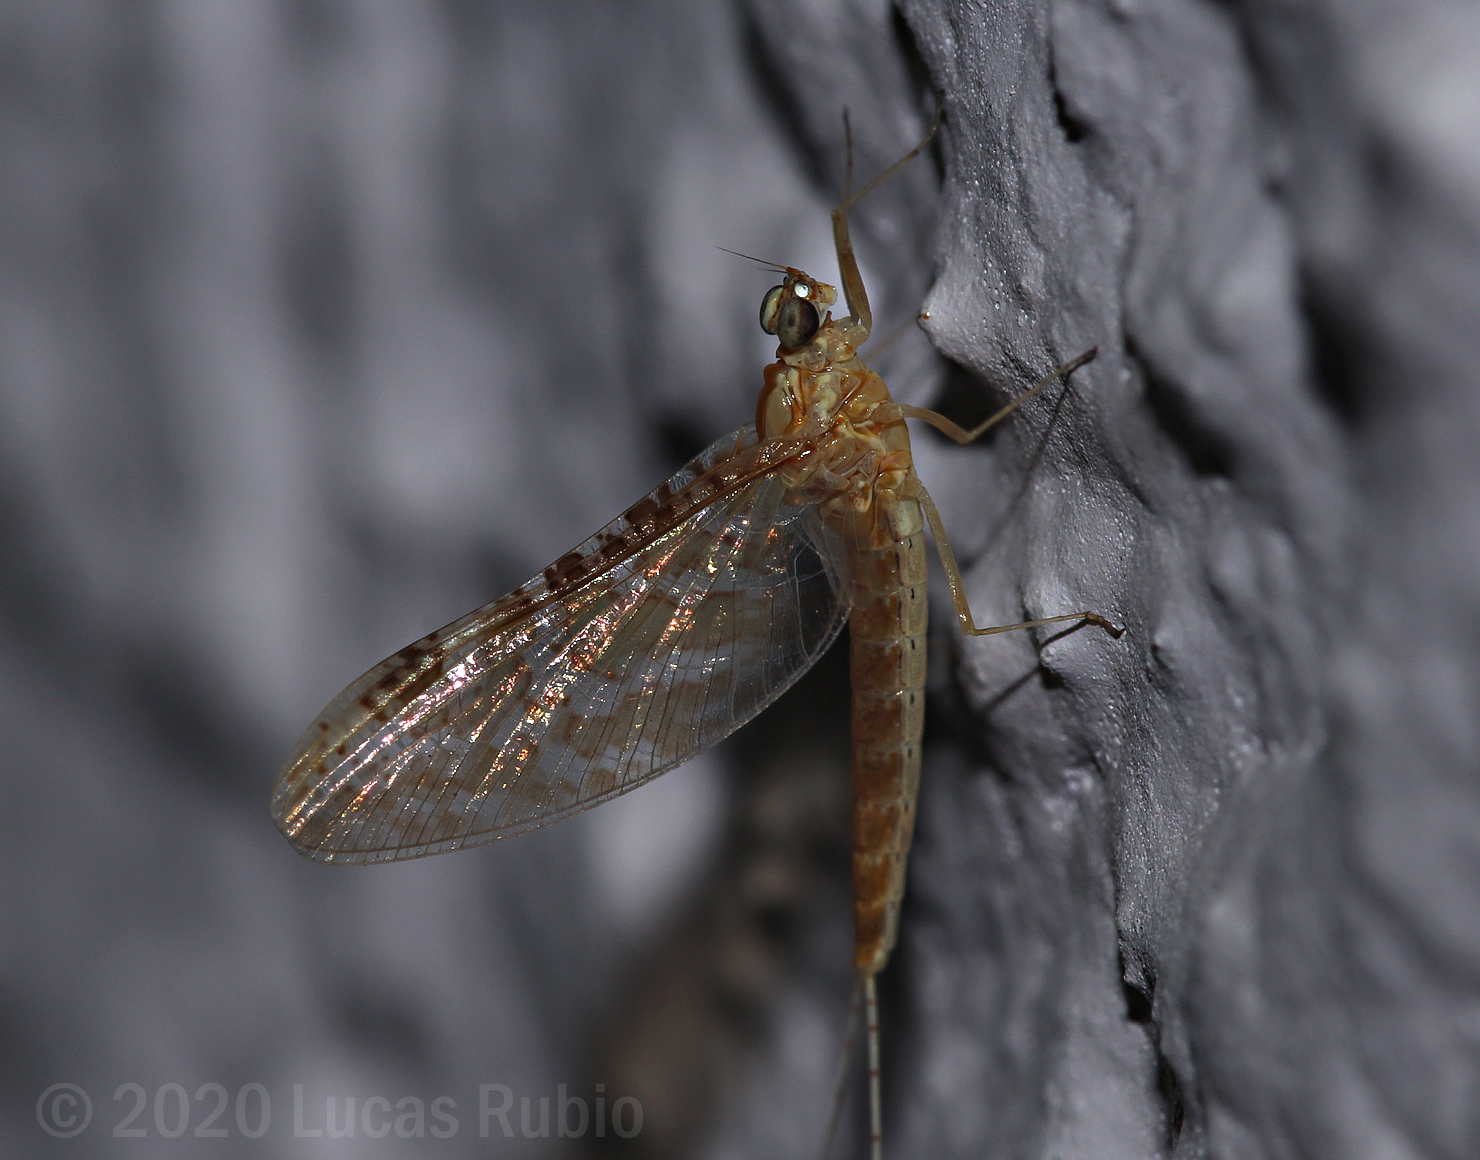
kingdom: Animalia
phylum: Arthropoda
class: Insecta
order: Ephemeroptera
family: Baetidae
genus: Callibaetis
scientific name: Callibaetis sellacki
